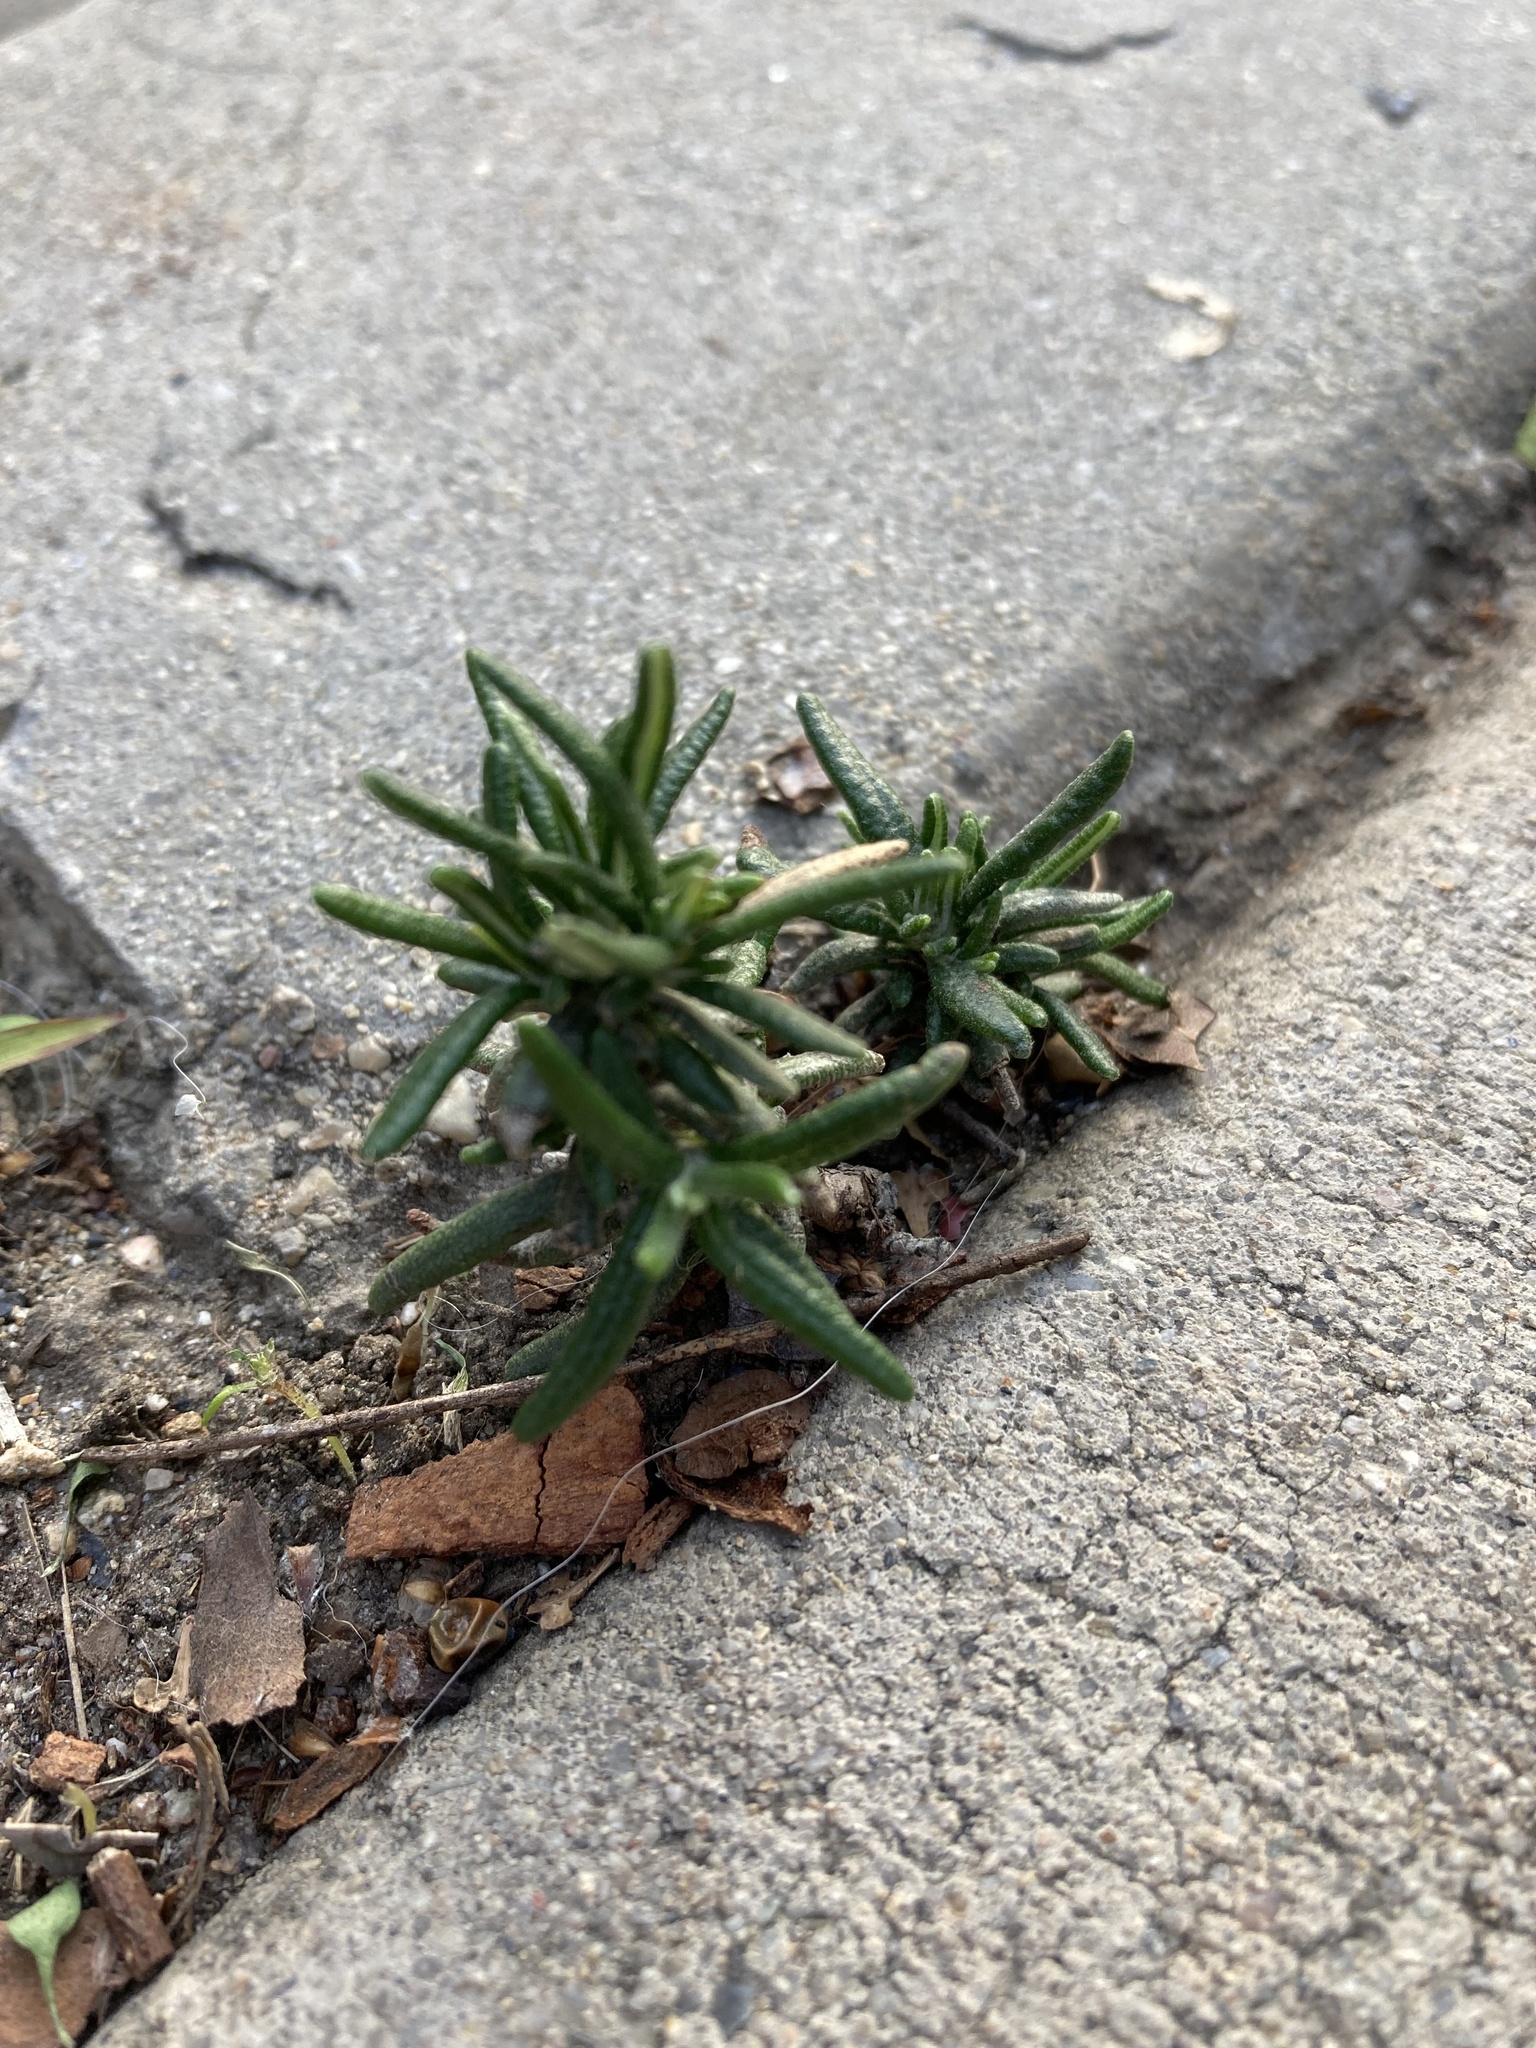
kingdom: Plantae
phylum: Tracheophyta
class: Magnoliopsida
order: Lamiales
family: Lamiaceae
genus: Salvia
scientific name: Salvia rosmarinus
